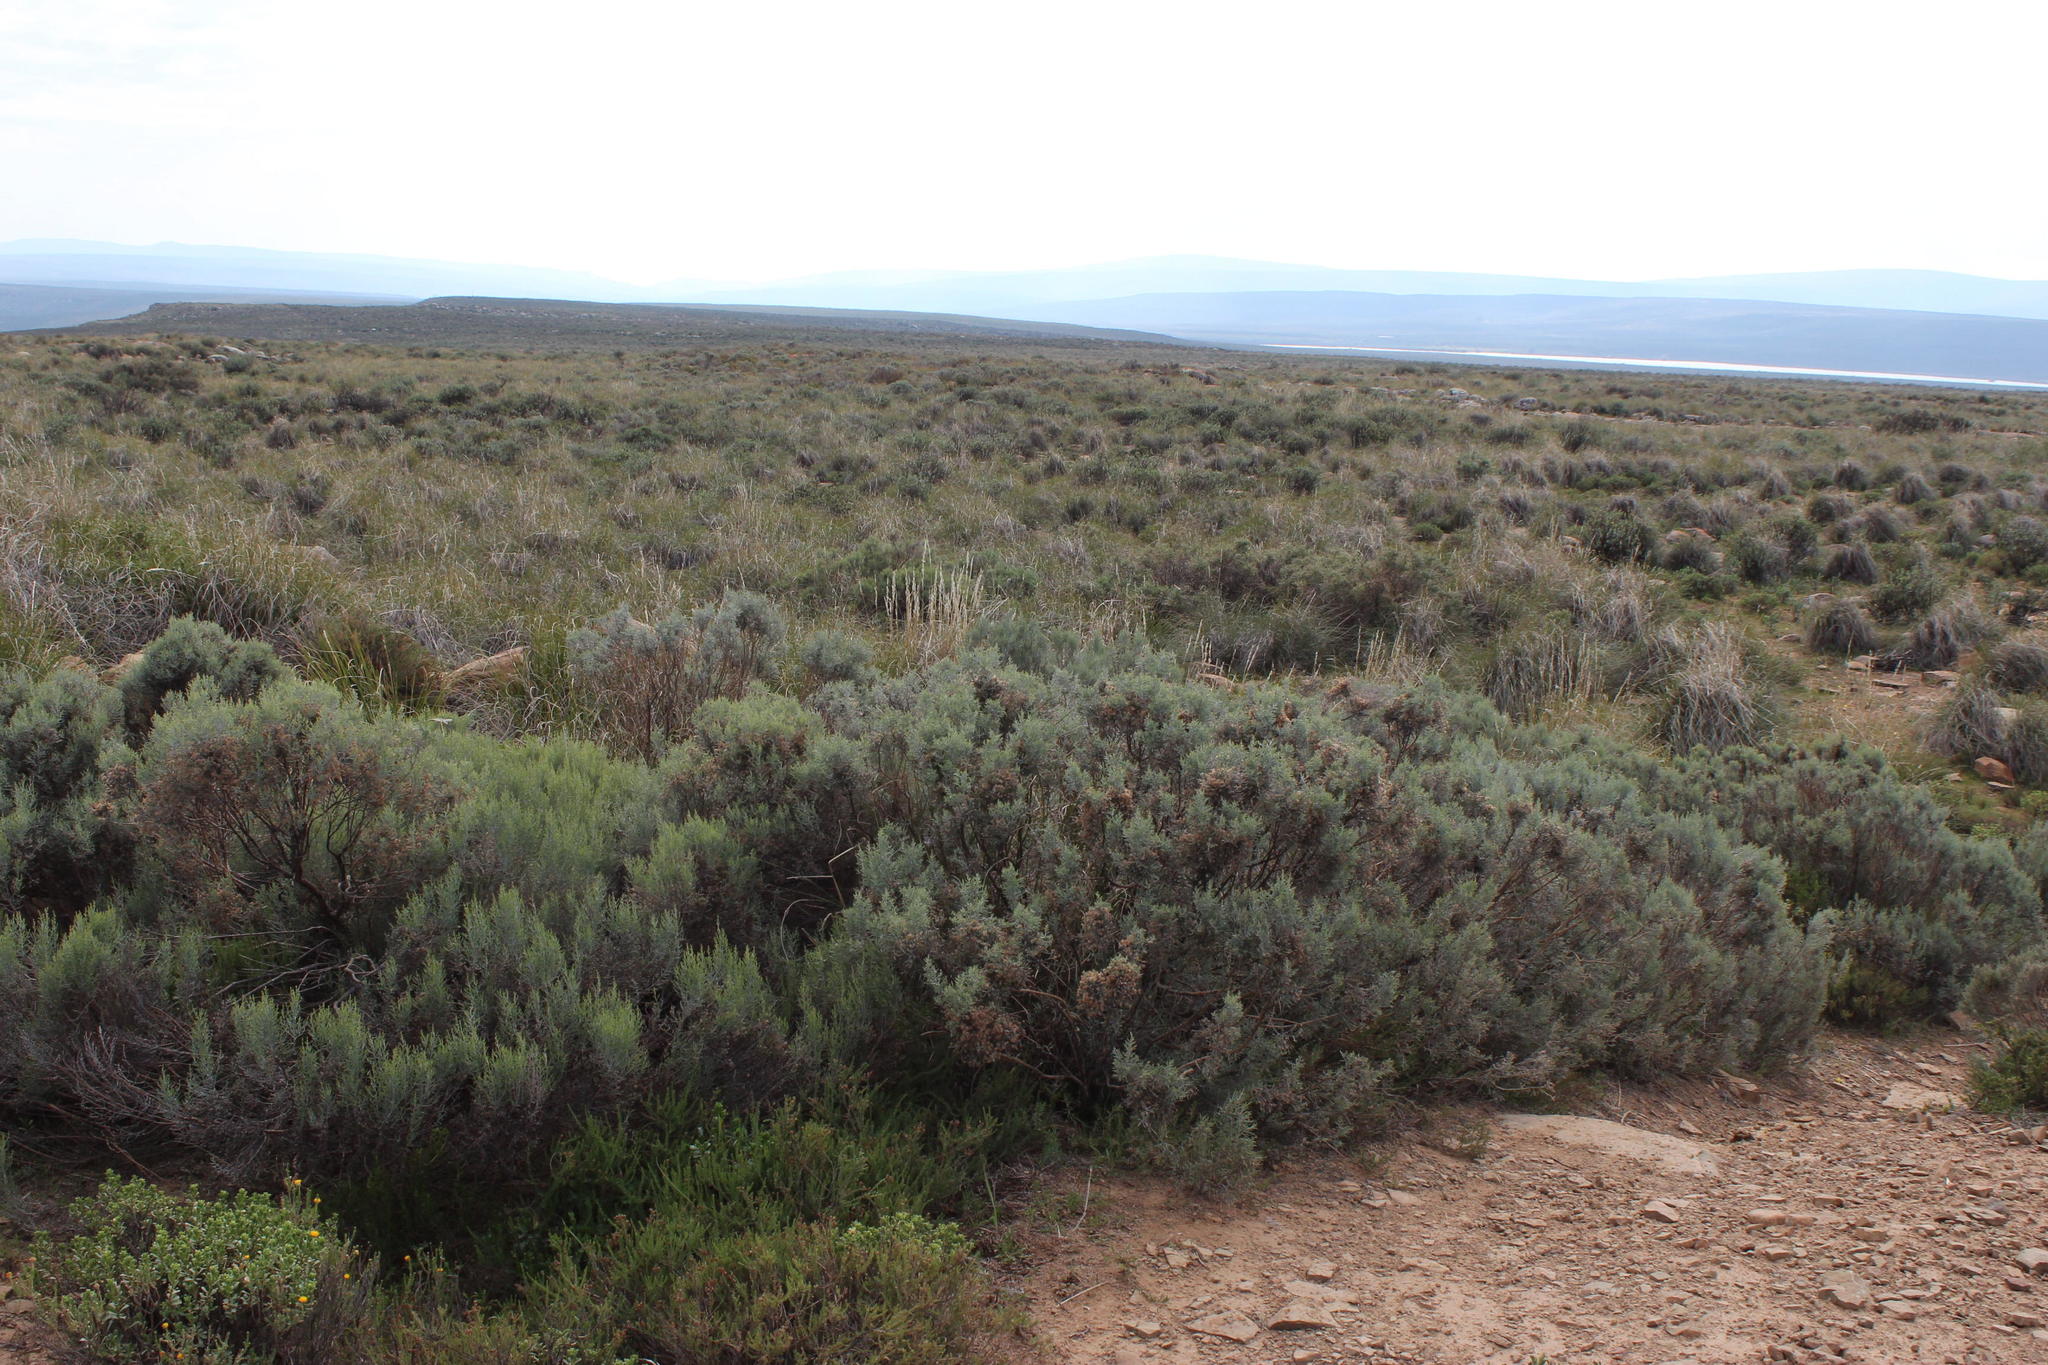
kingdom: Plantae
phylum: Tracheophyta
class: Magnoliopsida
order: Asterales
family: Asteraceae
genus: Dicerothamnus
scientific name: Dicerothamnus rhinocerotis
